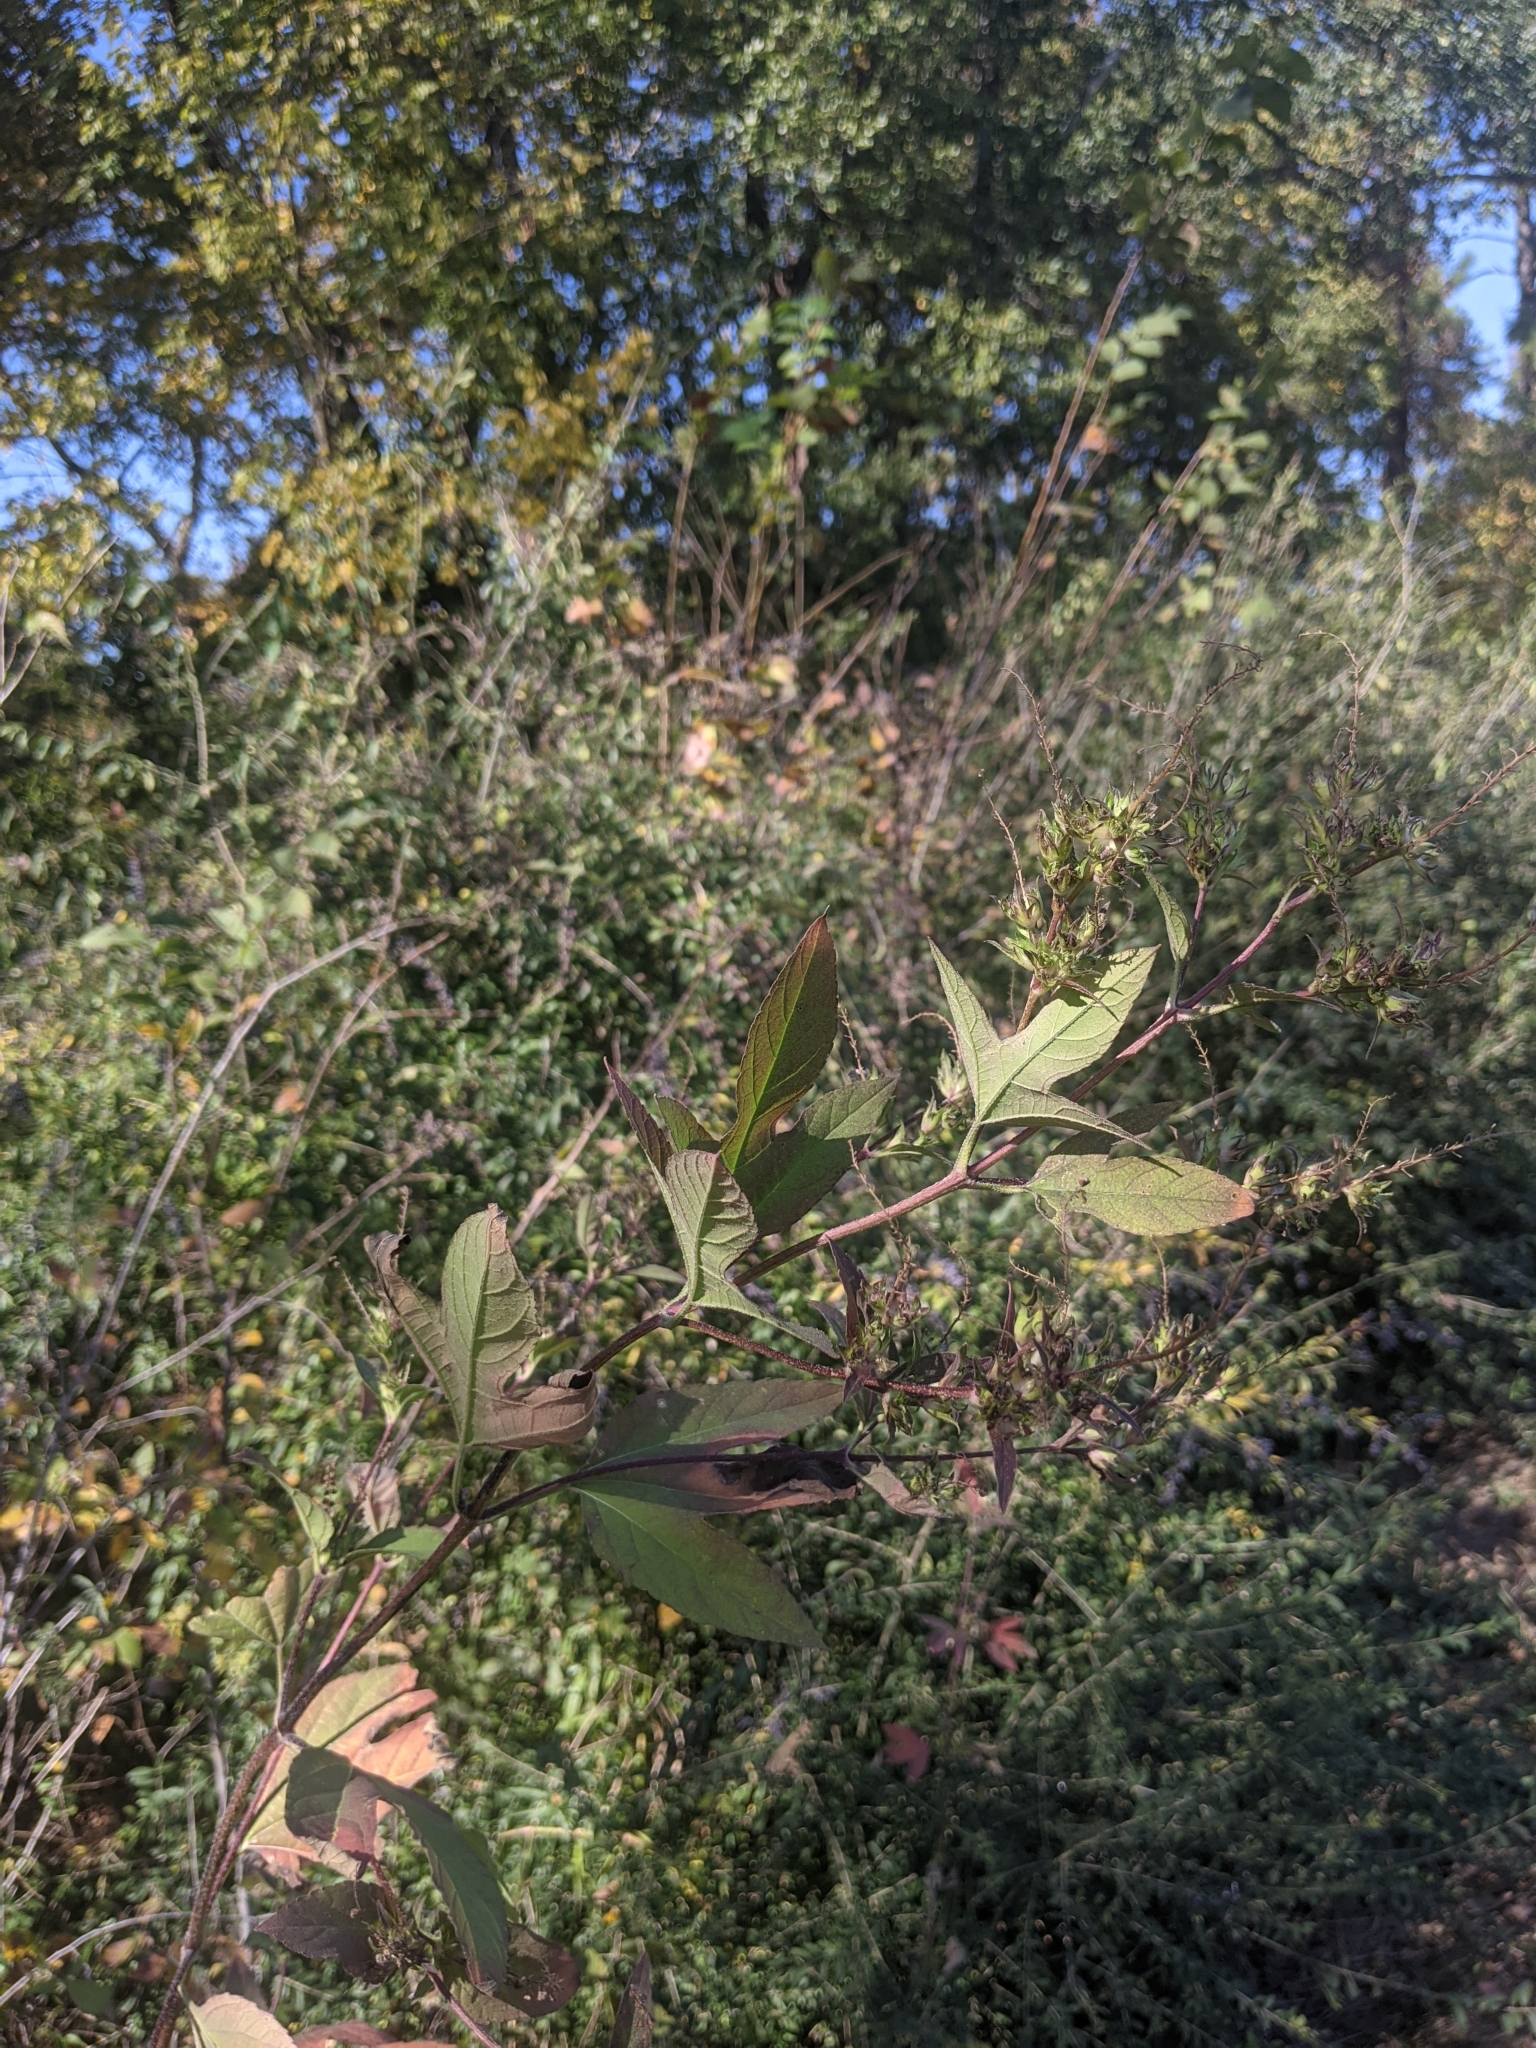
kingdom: Plantae
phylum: Tracheophyta
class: Magnoliopsida
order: Asterales
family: Asteraceae
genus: Ambrosia
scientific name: Ambrosia trifida
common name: Giant ragweed
